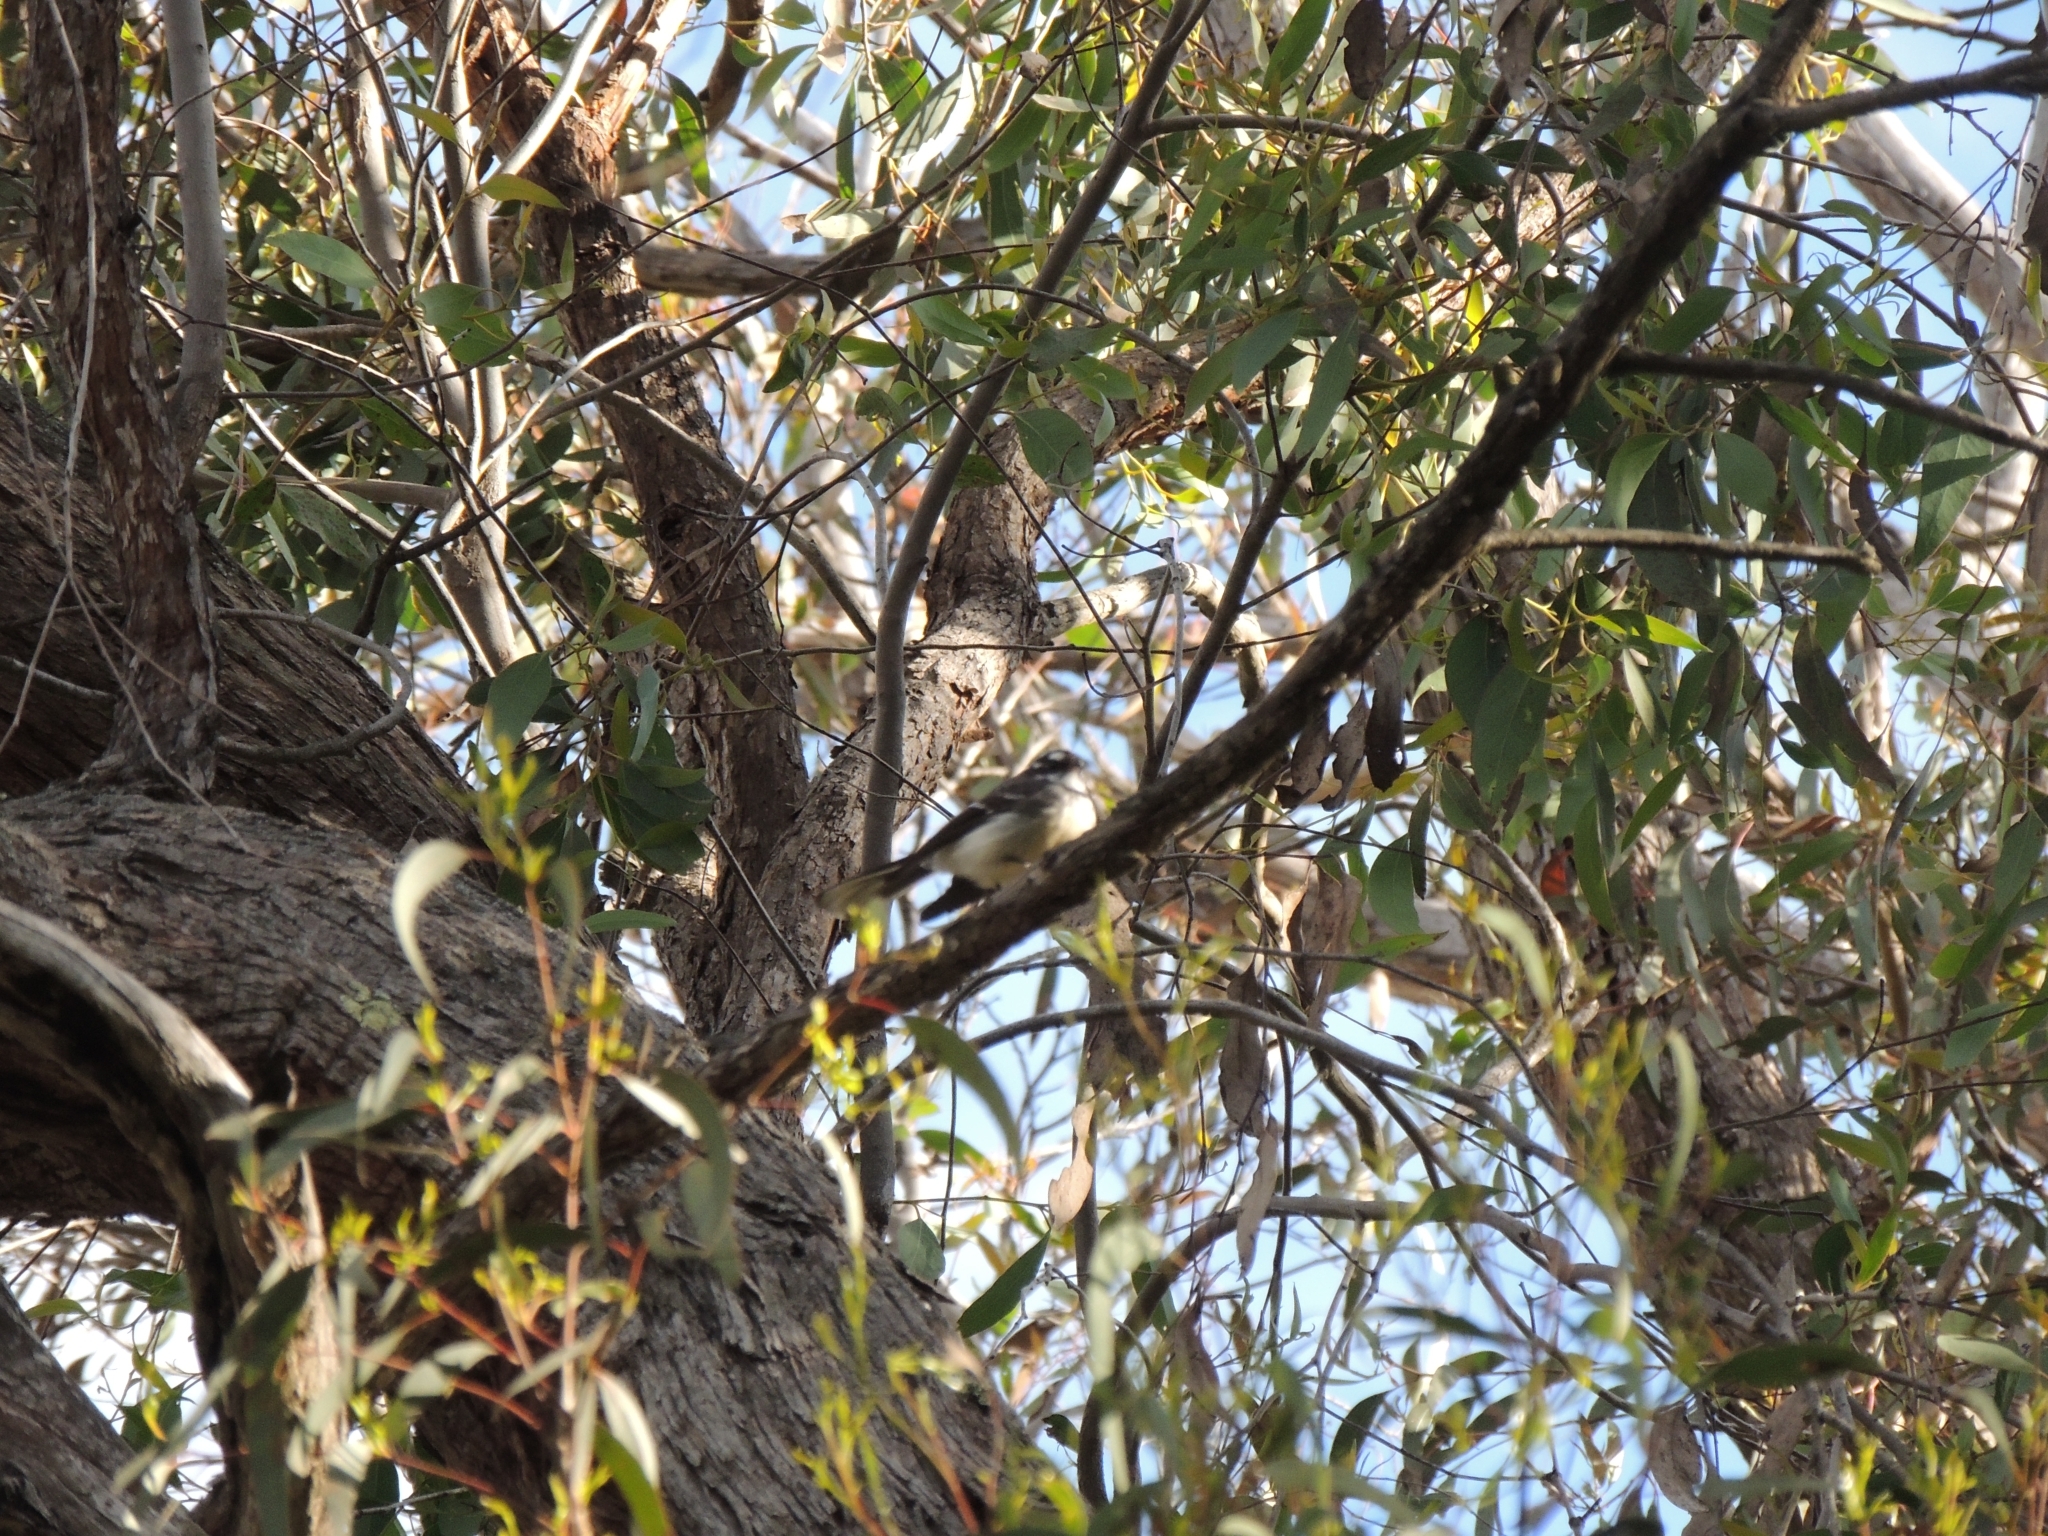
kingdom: Animalia
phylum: Chordata
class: Aves
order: Passeriformes
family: Rhipiduridae
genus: Rhipidura
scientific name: Rhipidura albiscapa
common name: Grey fantail
